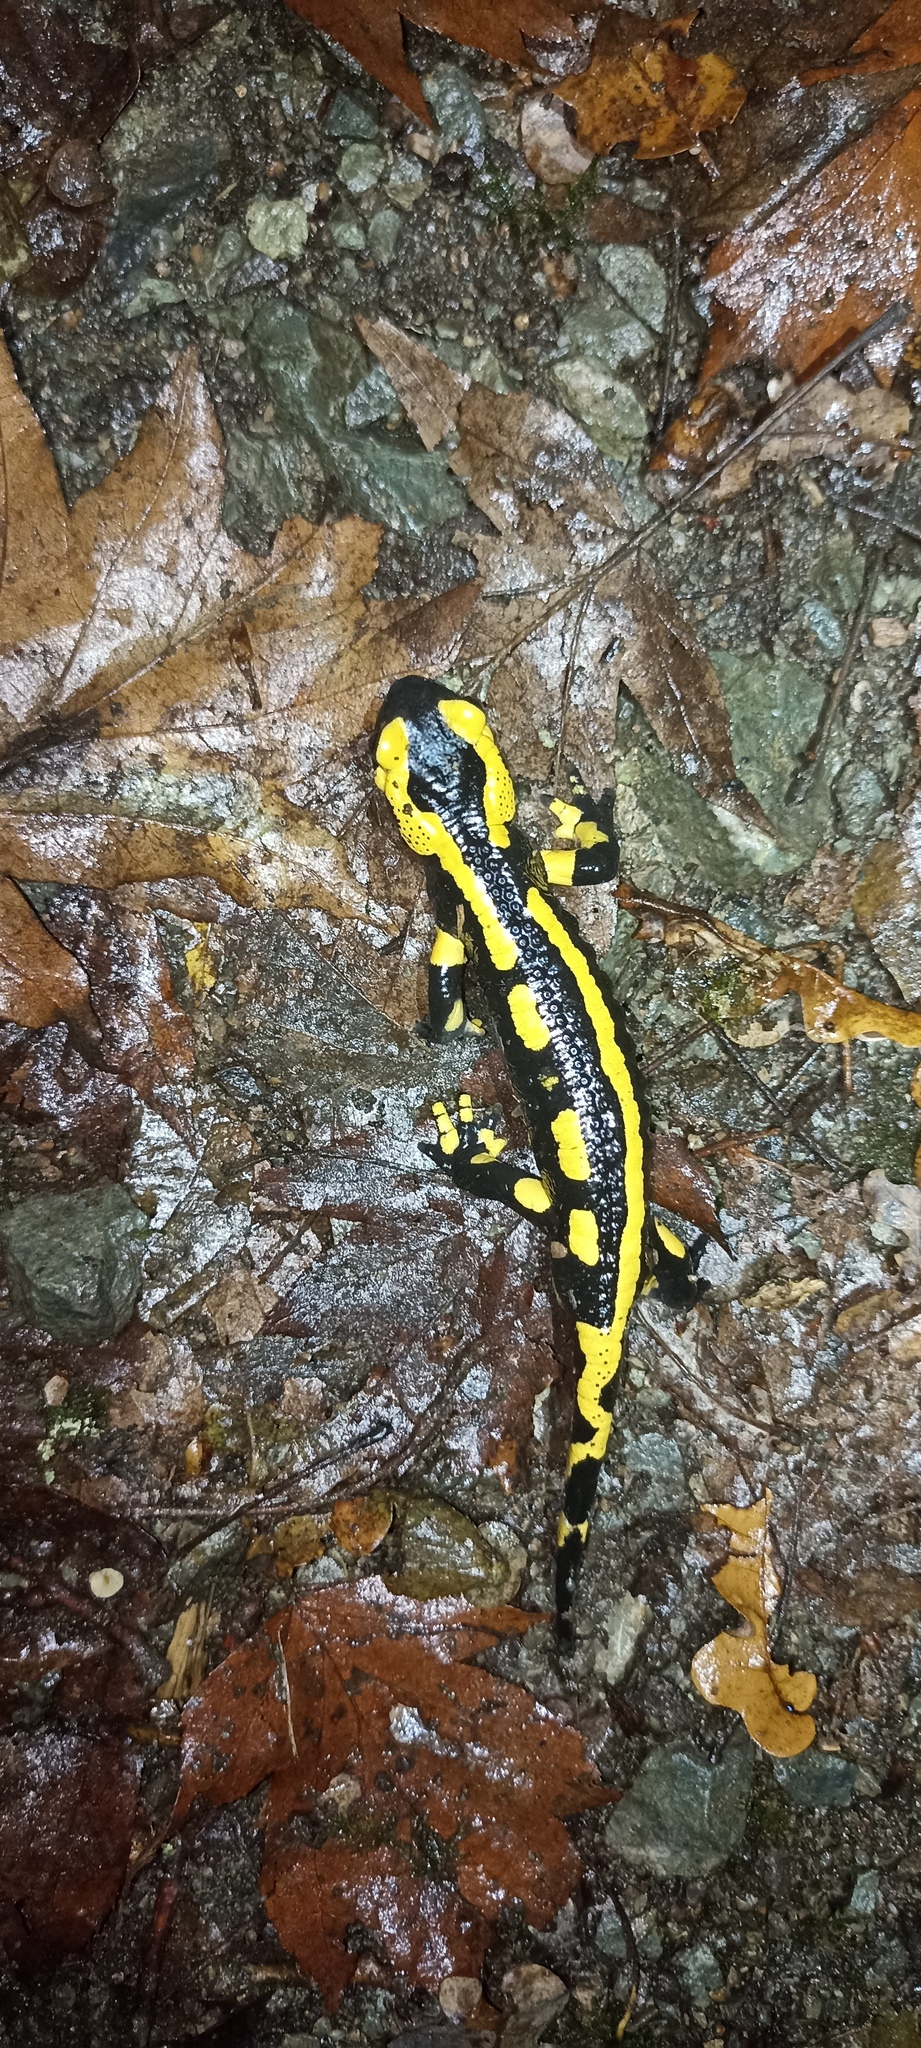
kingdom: Animalia
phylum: Chordata
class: Amphibia
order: Caudata
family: Salamandridae
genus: Salamandra
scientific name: Salamandra salamandra
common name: Fire salamander
